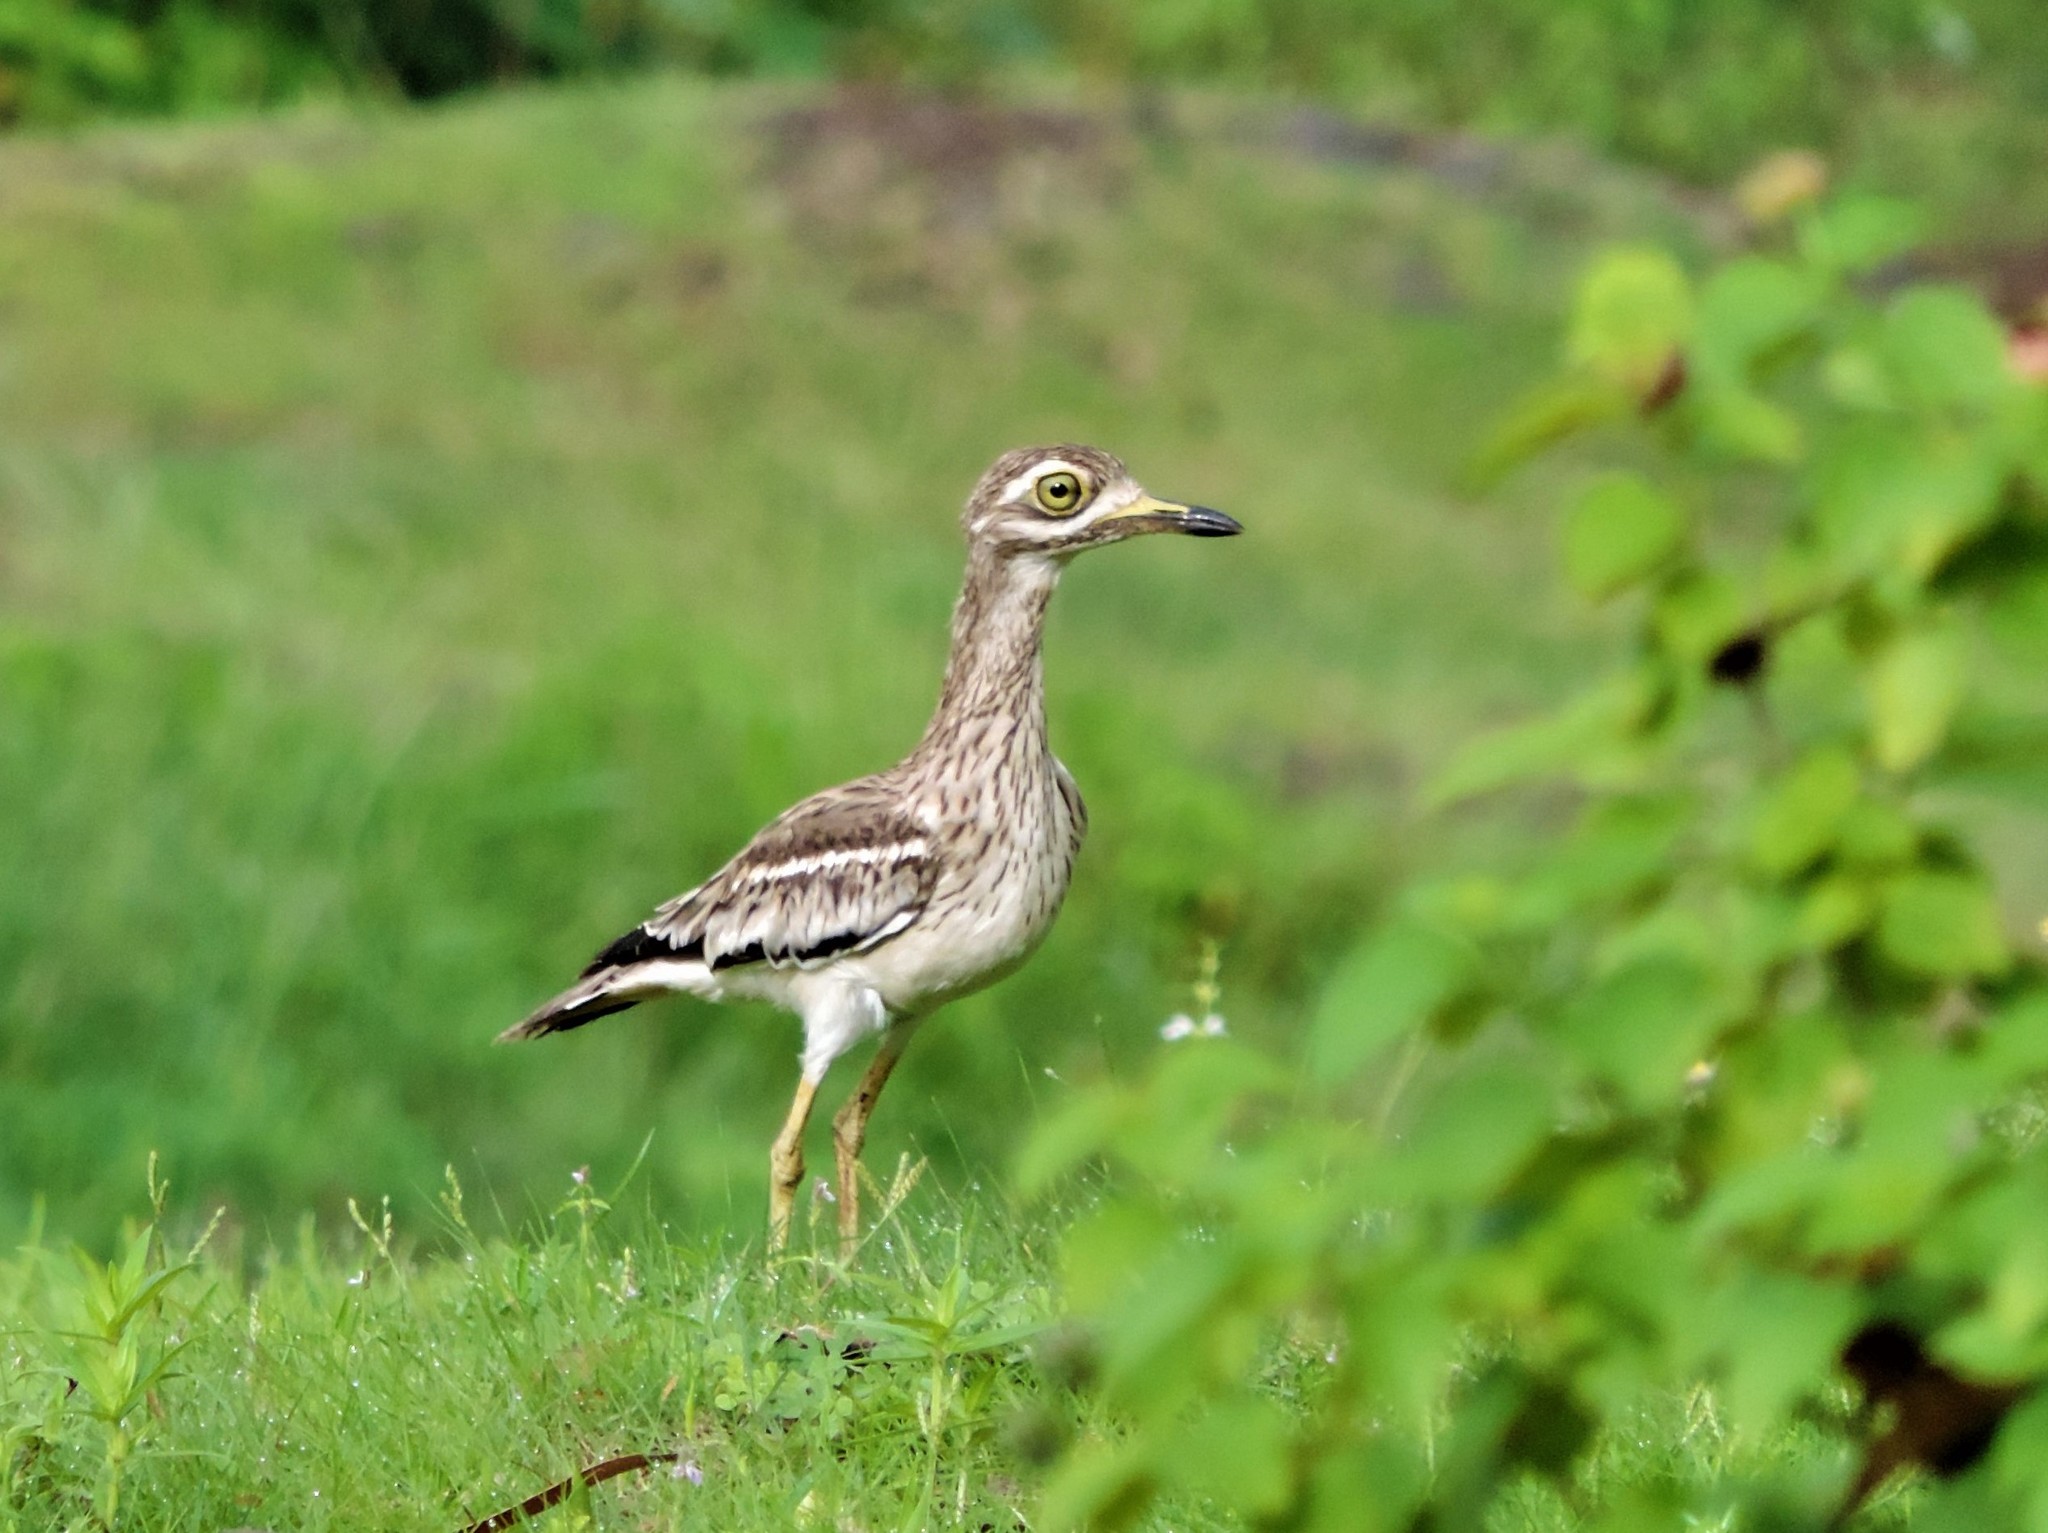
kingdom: Animalia
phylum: Chordata
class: Aves
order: Charadriiformes
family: Burhinidae
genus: Burhinus
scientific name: Burhinus indicus
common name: Indian thick-knee
